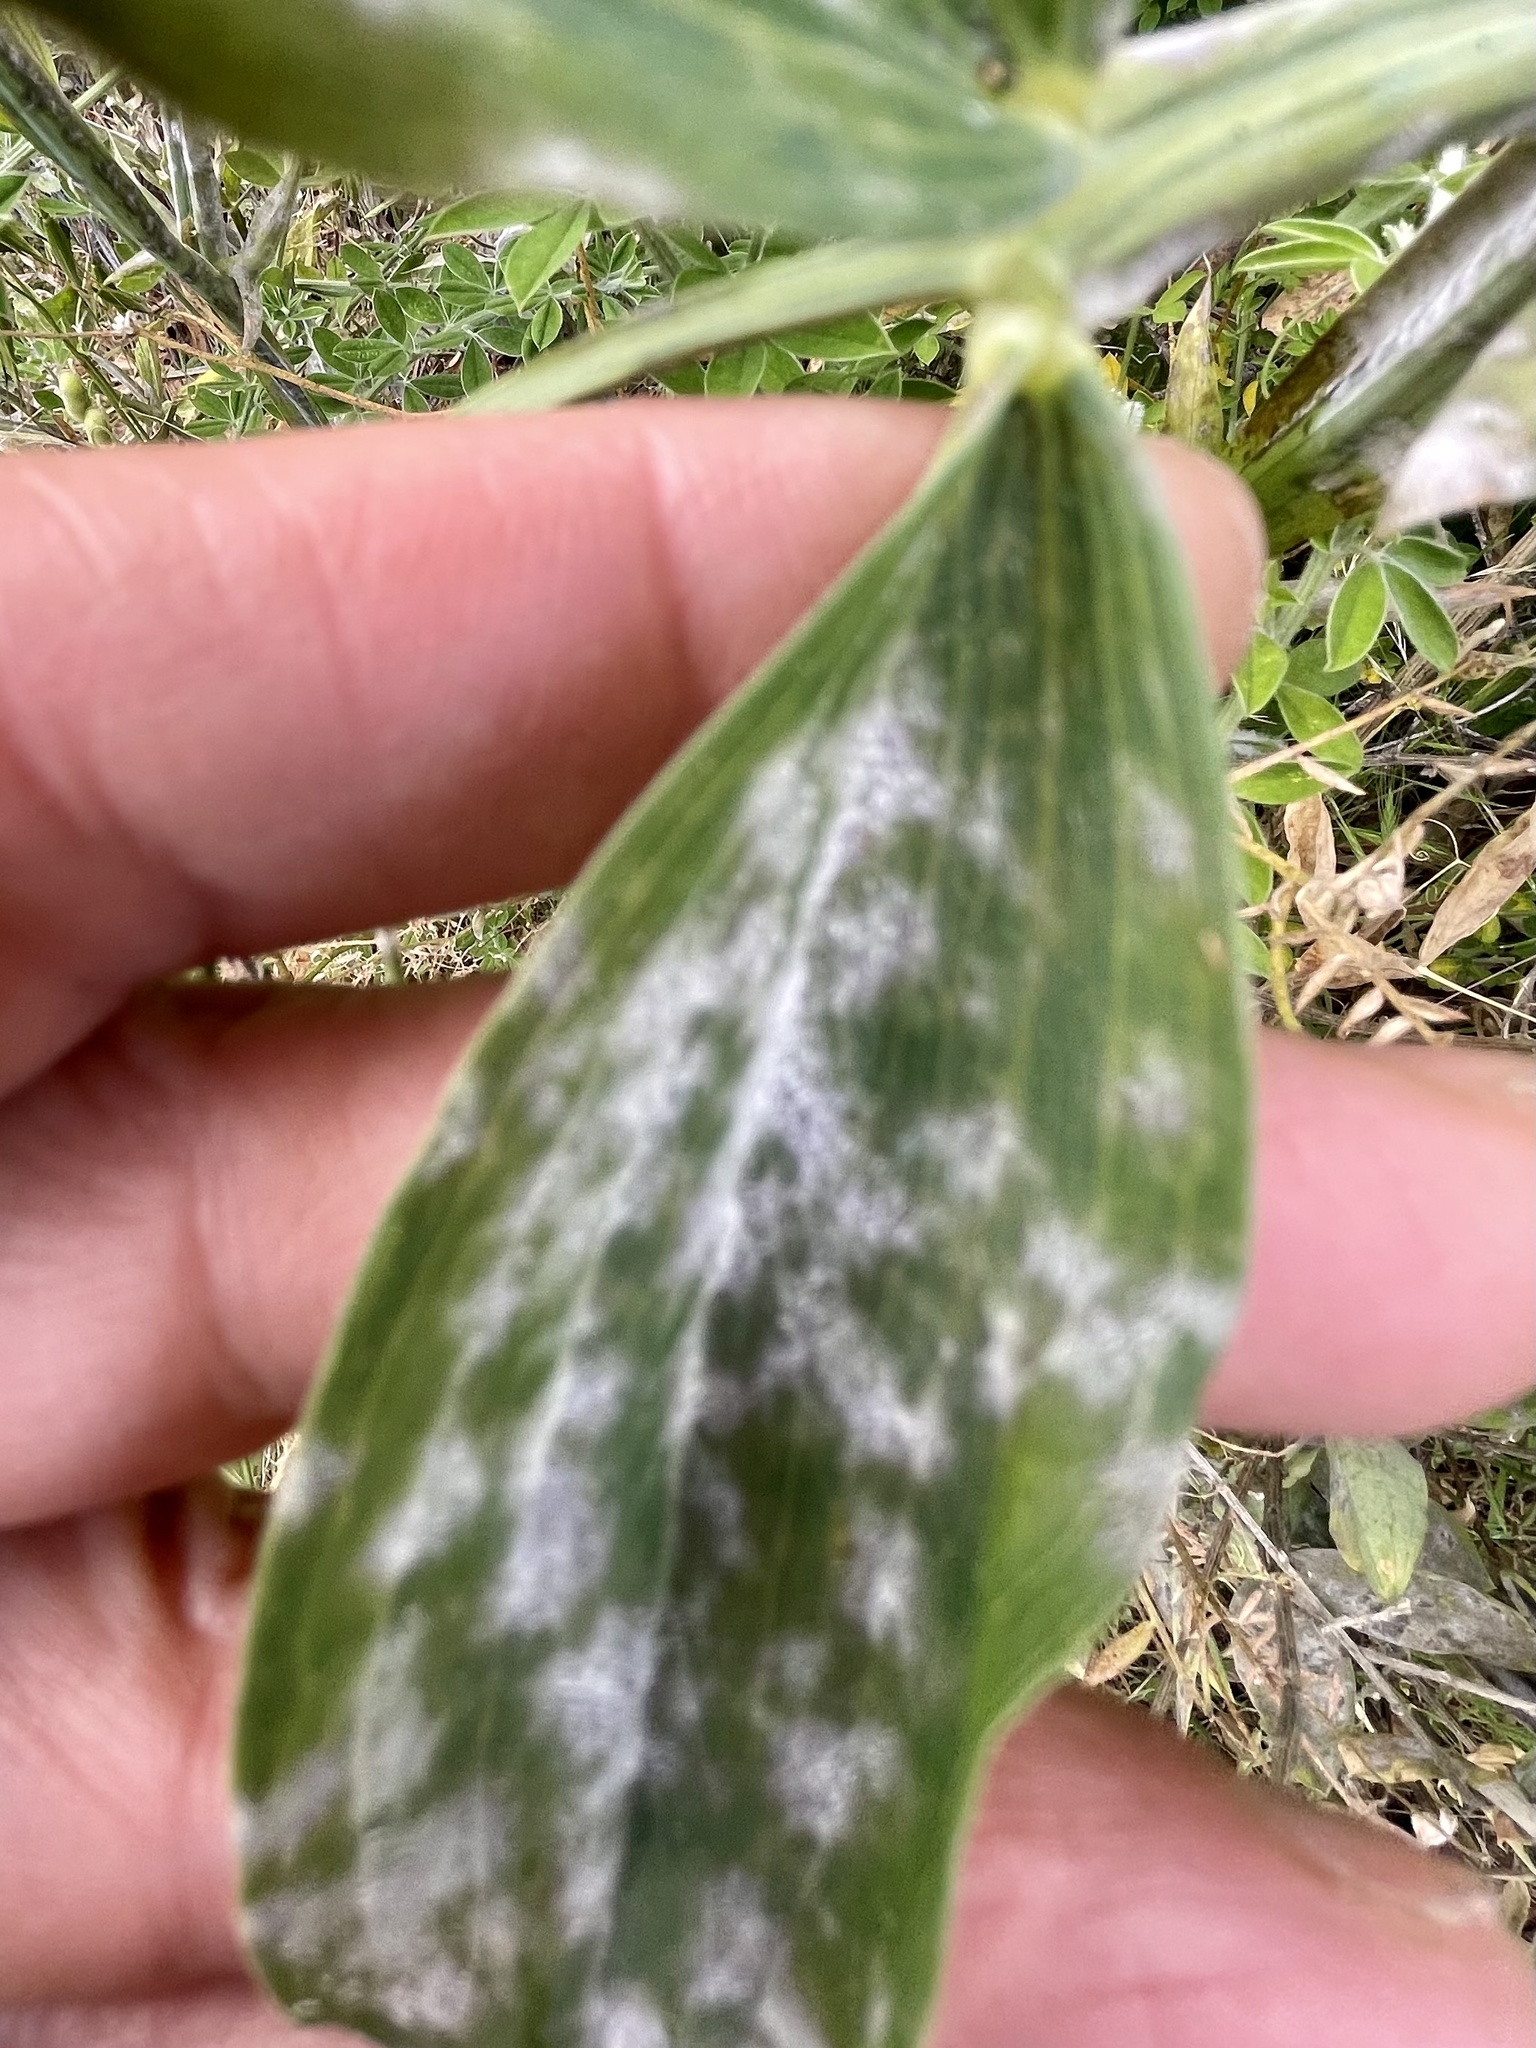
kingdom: Fungi
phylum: Ascomycota
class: Leotiomycetes
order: Helotiales
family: Erysiphaceae
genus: Erysiphe
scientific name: Erysiphe pisi
